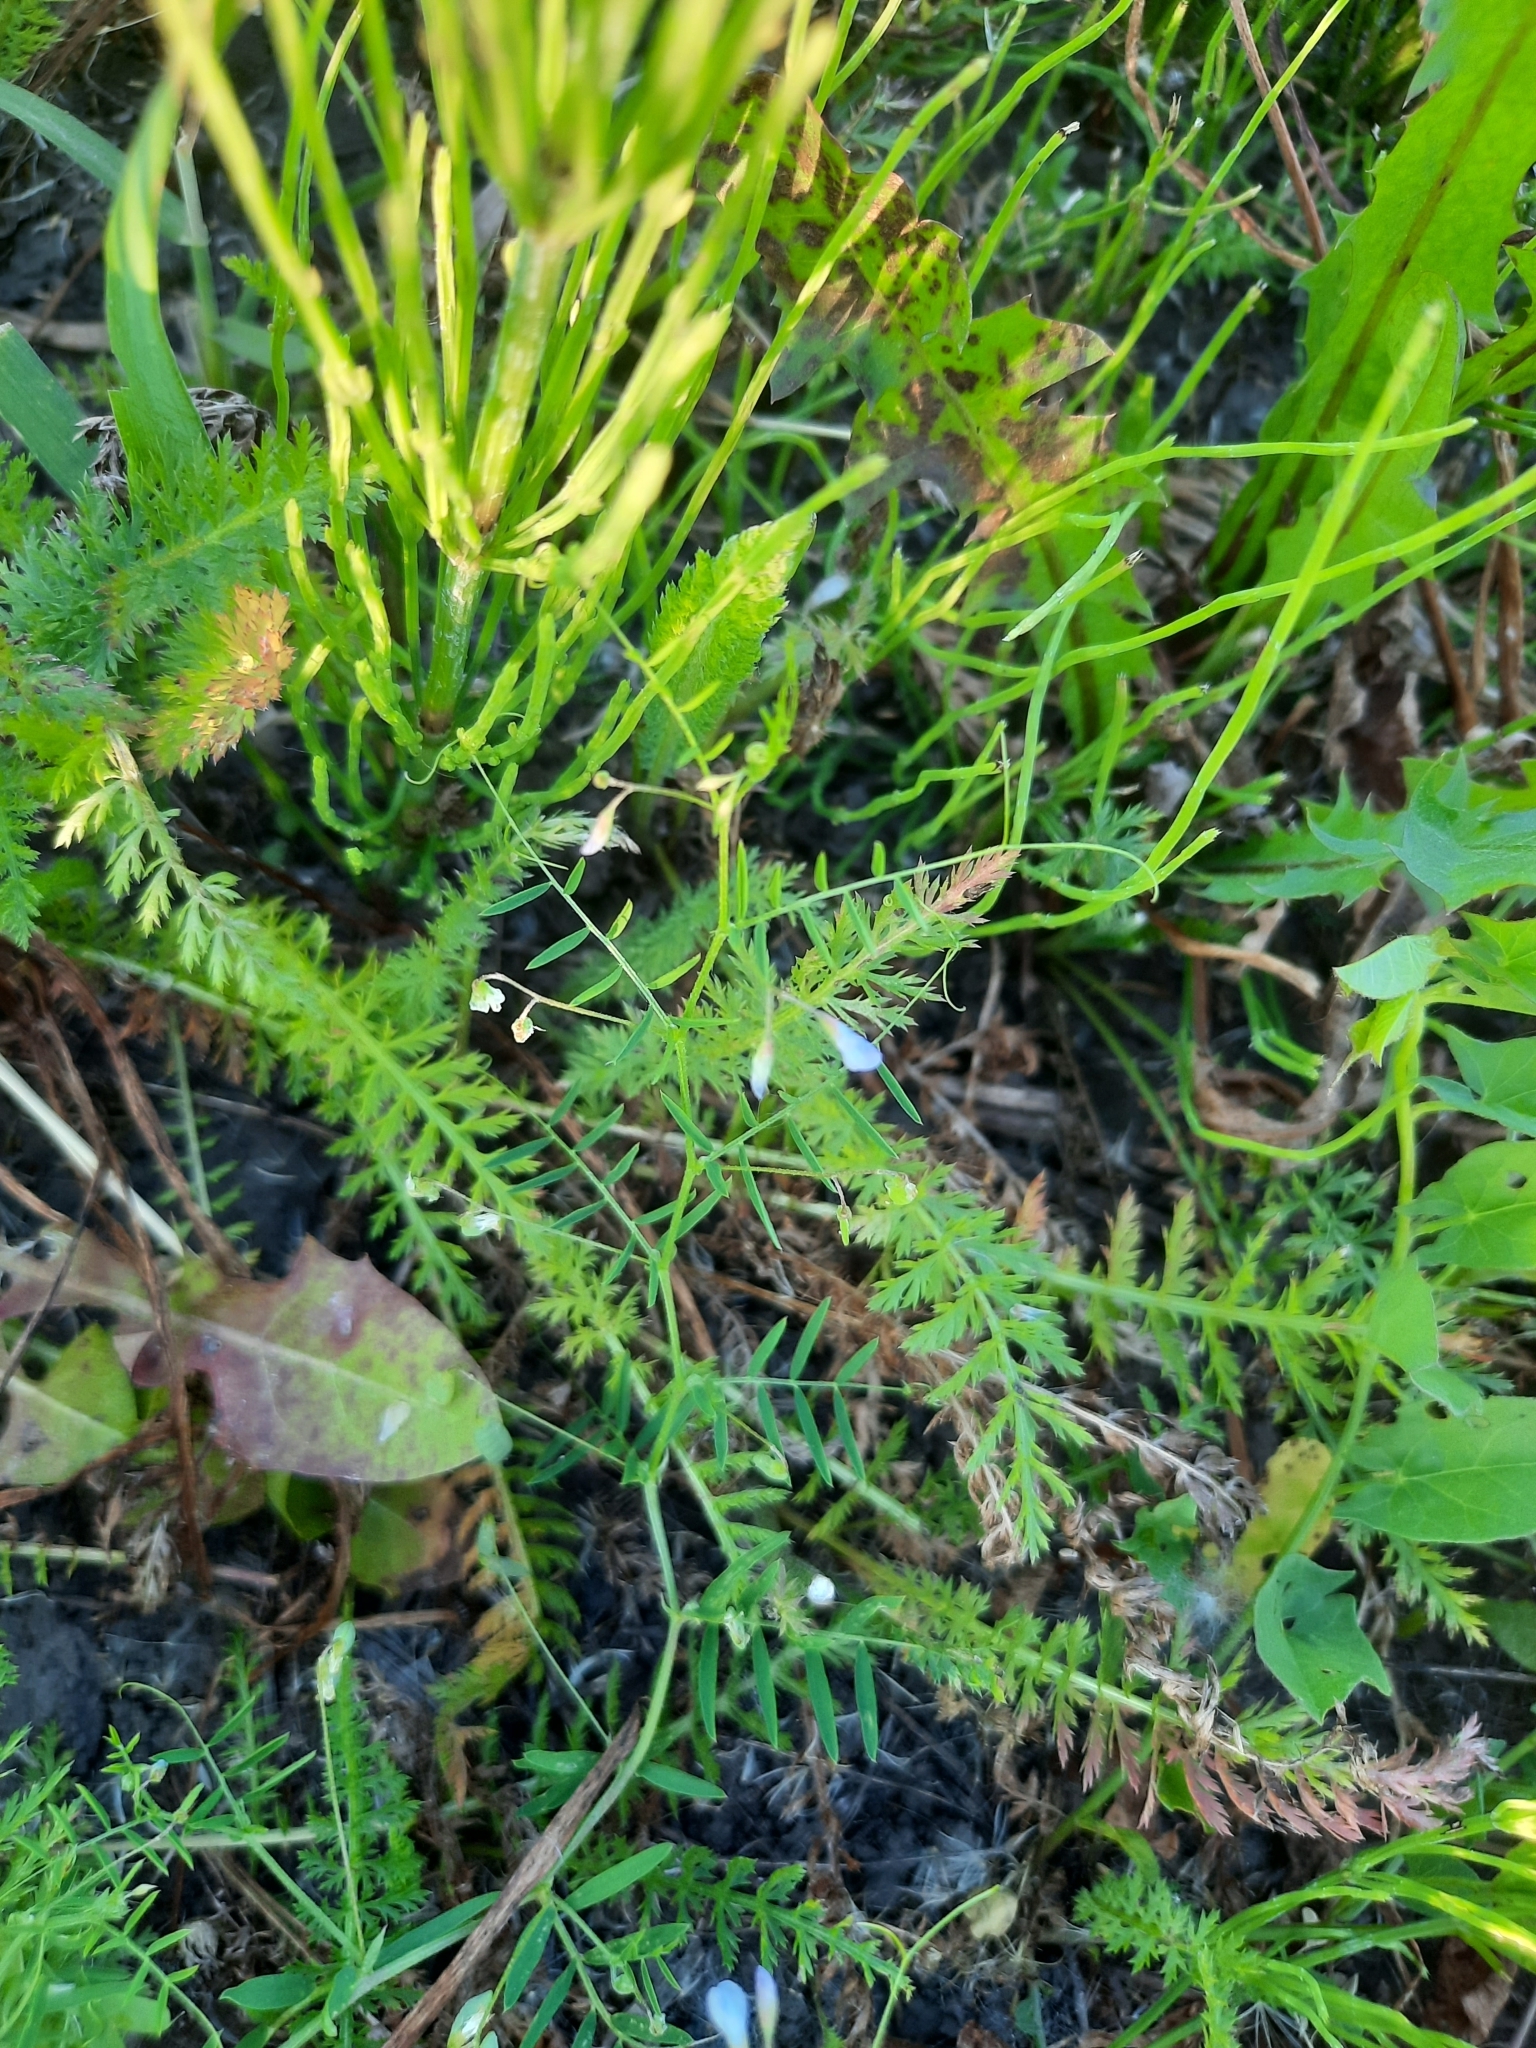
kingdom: Plantae
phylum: Tracheophyta
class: Magnoliopsida
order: Fabales
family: Fabaceae
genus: Vicia
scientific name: Vicia tetrasperma
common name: Smooth tare
